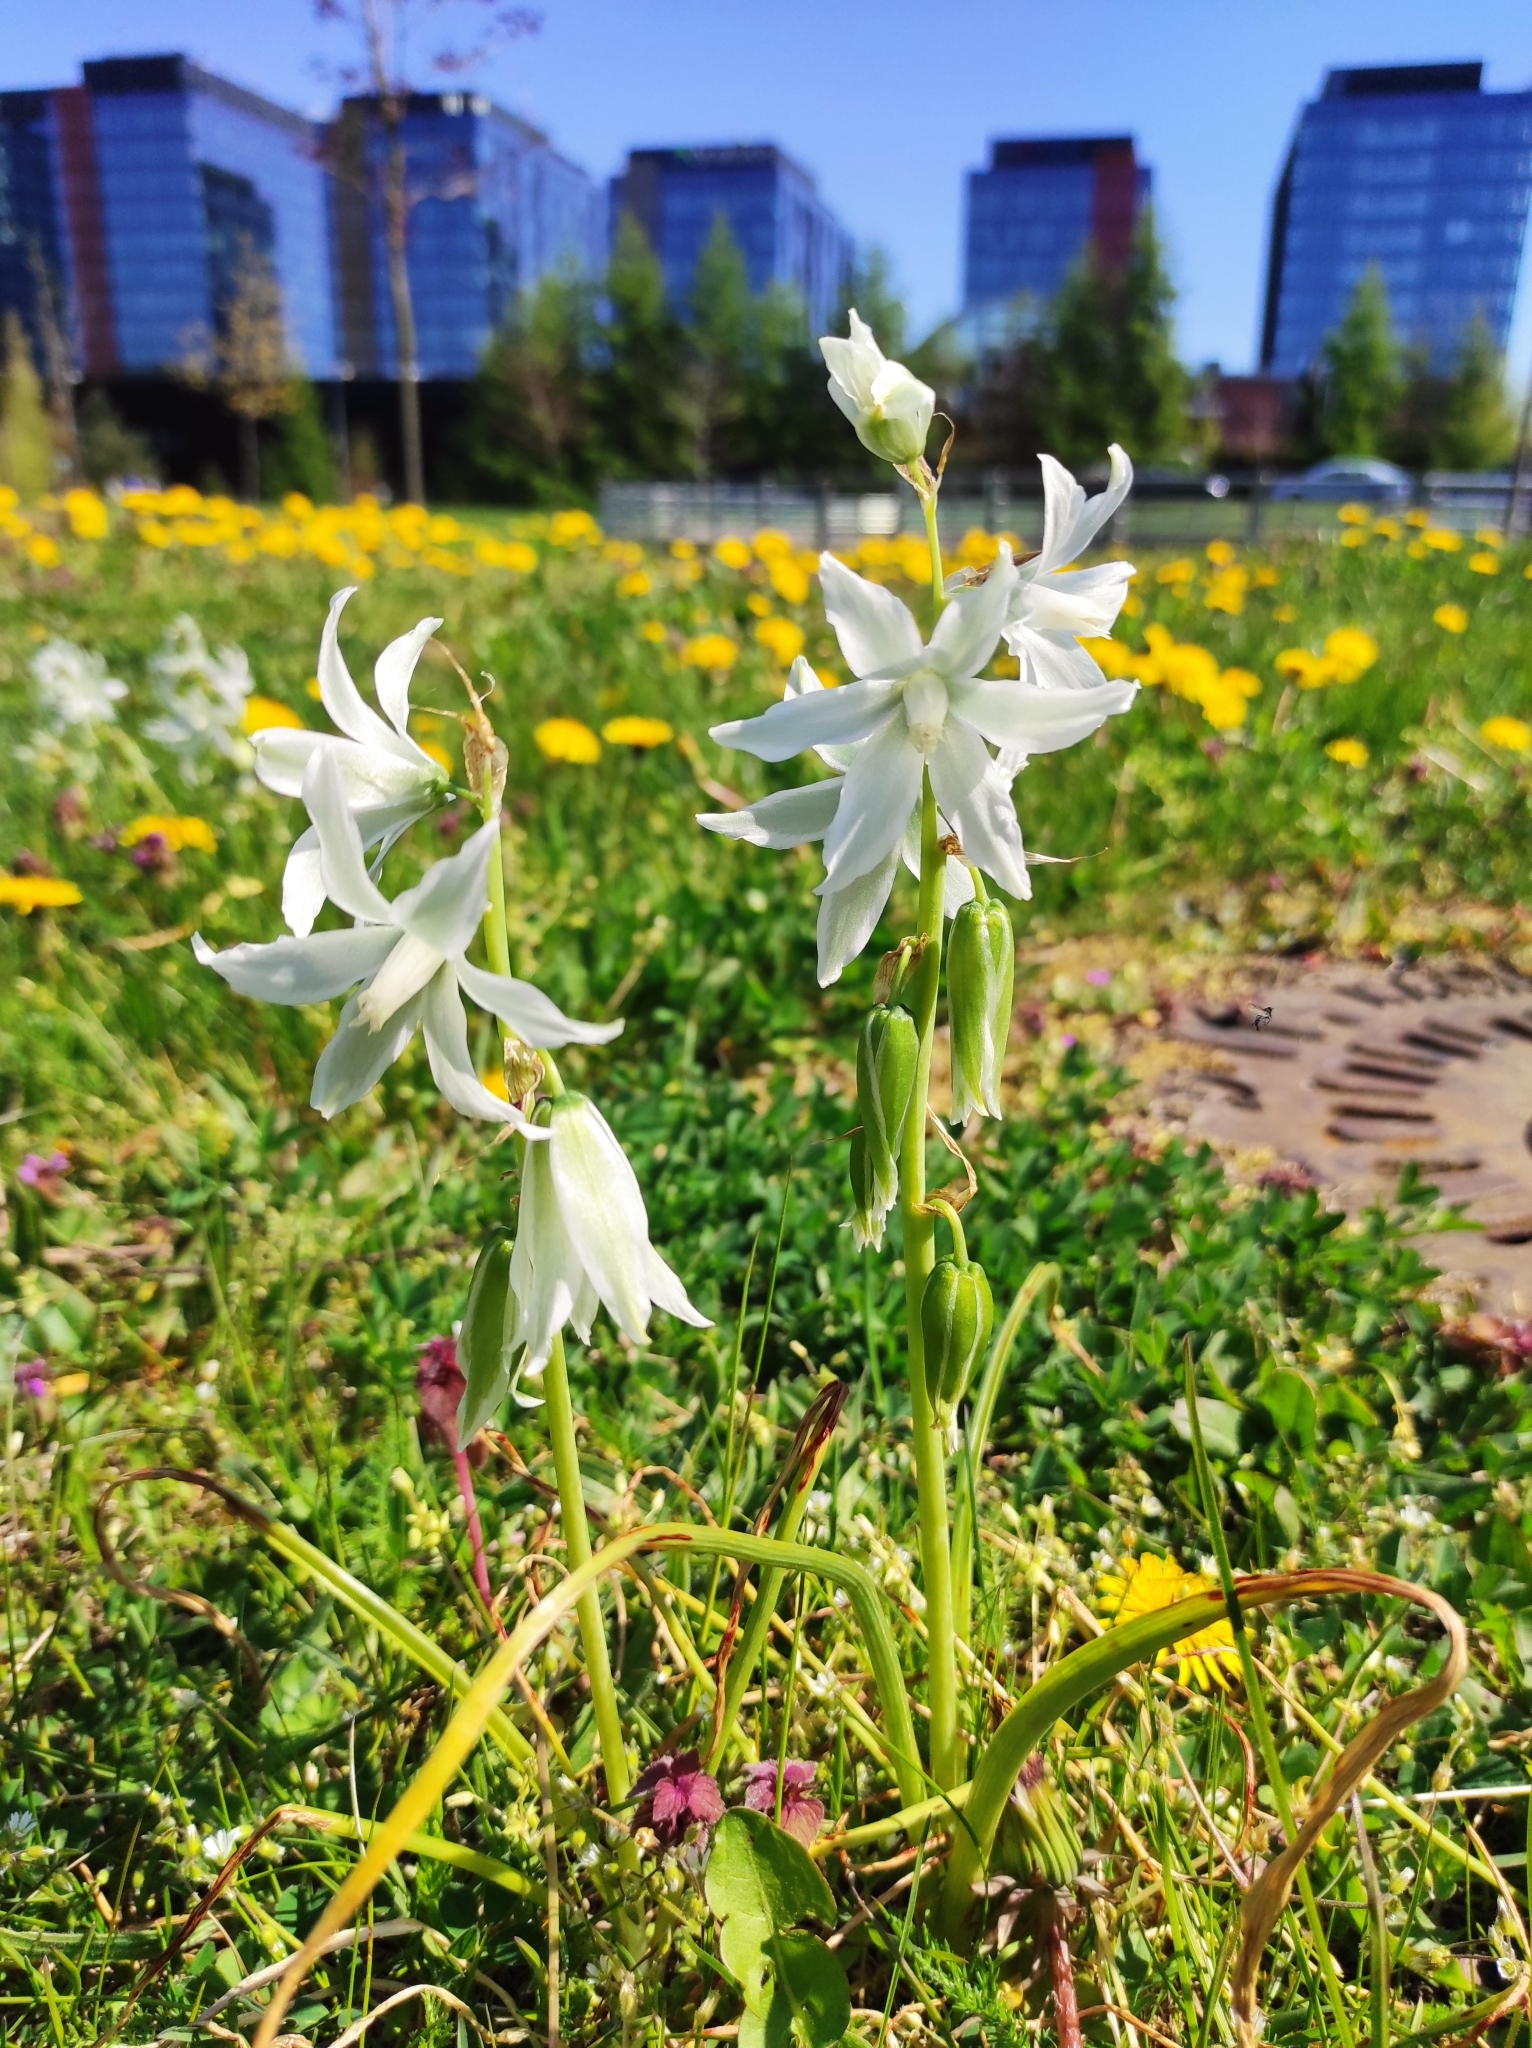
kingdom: Plantae
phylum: Tracheophyta
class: Liliopsida
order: Asparagales
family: Asparagaceae
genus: Ornithogalum
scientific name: Ornithogalum nutans
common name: Drooping star-of-bethlehem
